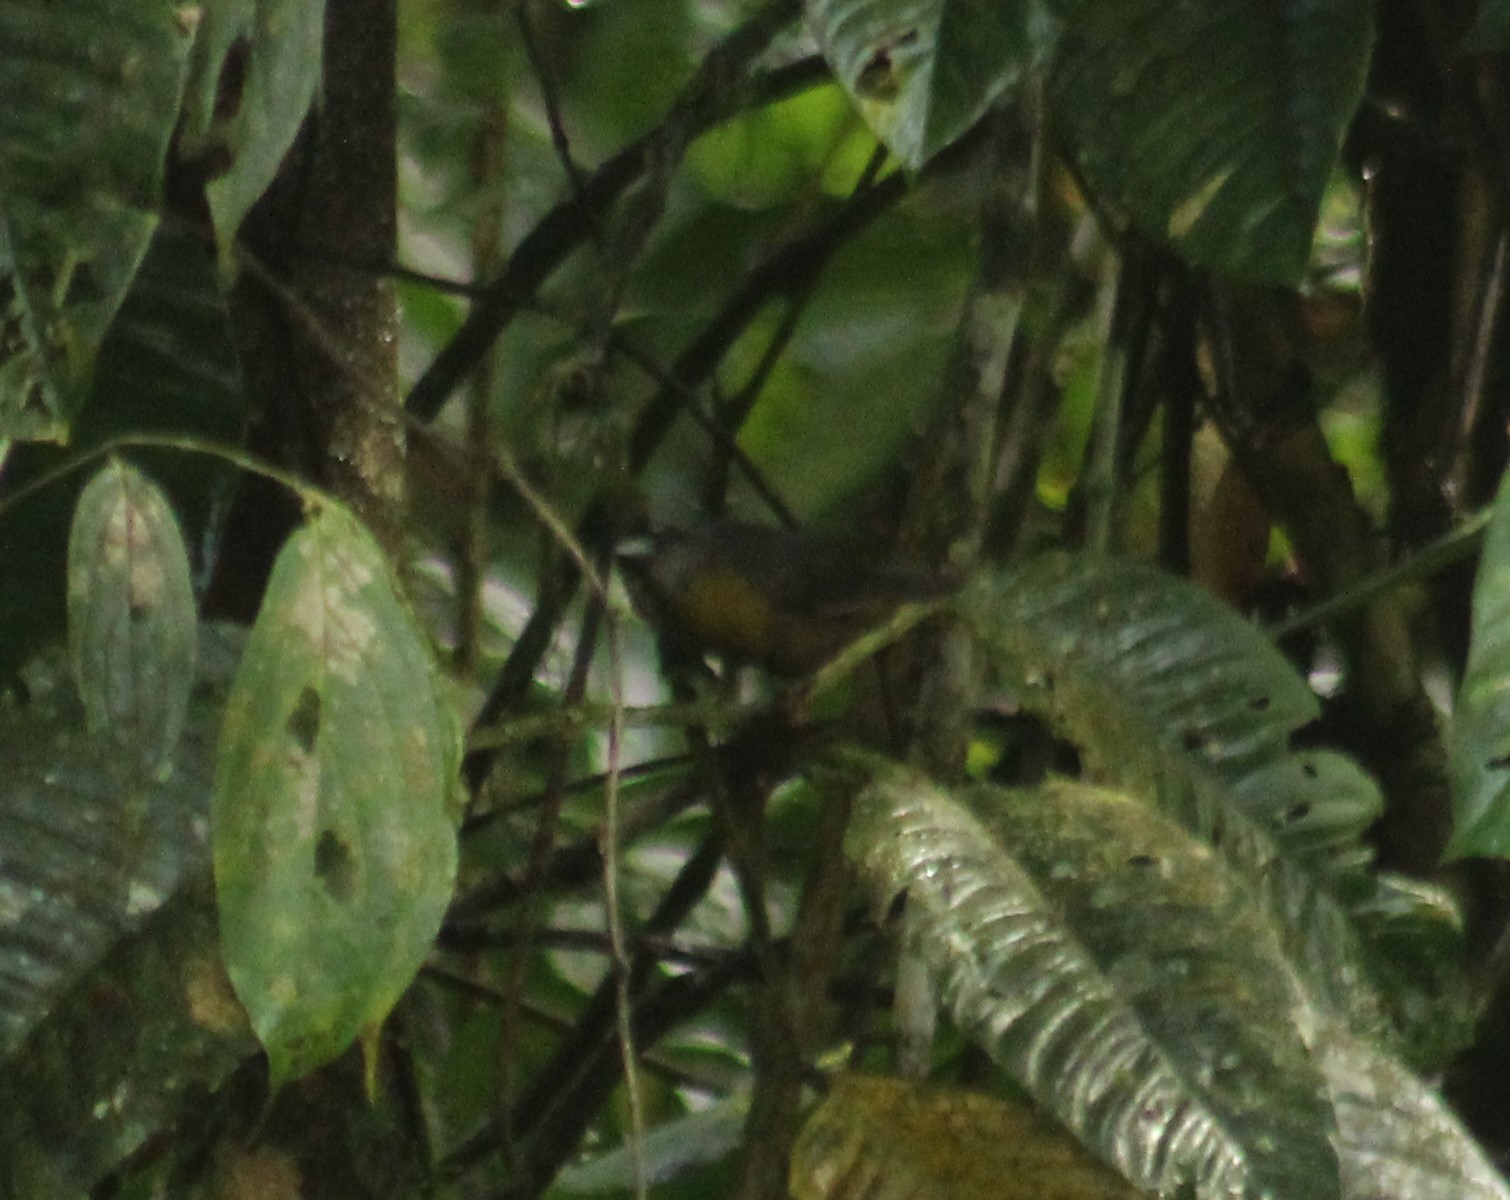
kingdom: Animalia
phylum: Chordata
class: Aves
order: Passeriformes
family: Mitrospingidae
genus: Mitrospingus
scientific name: Mitrospingus cassinii
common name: Dusky-faced tanager
